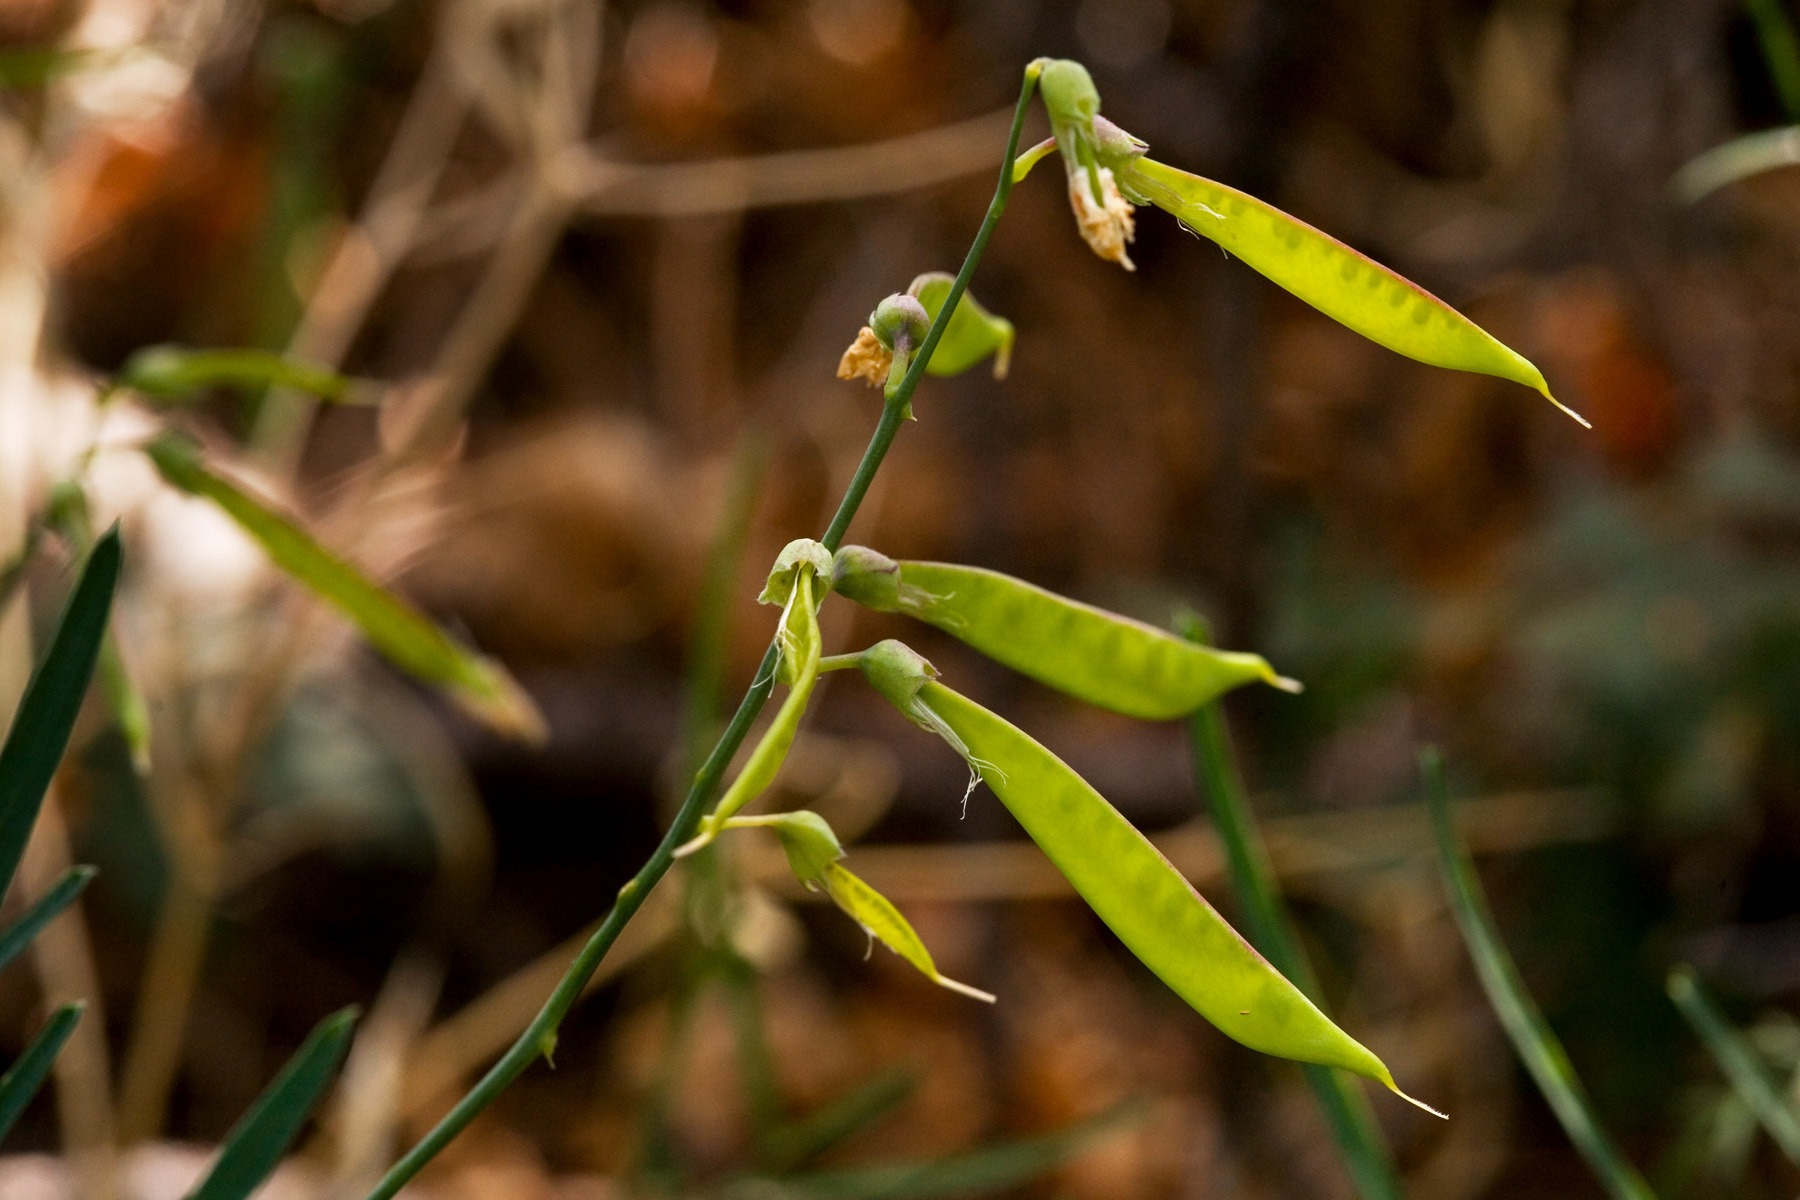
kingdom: Plantae
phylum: Tracheophyta
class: Magnoliopsida
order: Fabales
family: Fabaceae
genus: Lathyrus
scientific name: Lathyrus graminifolius
